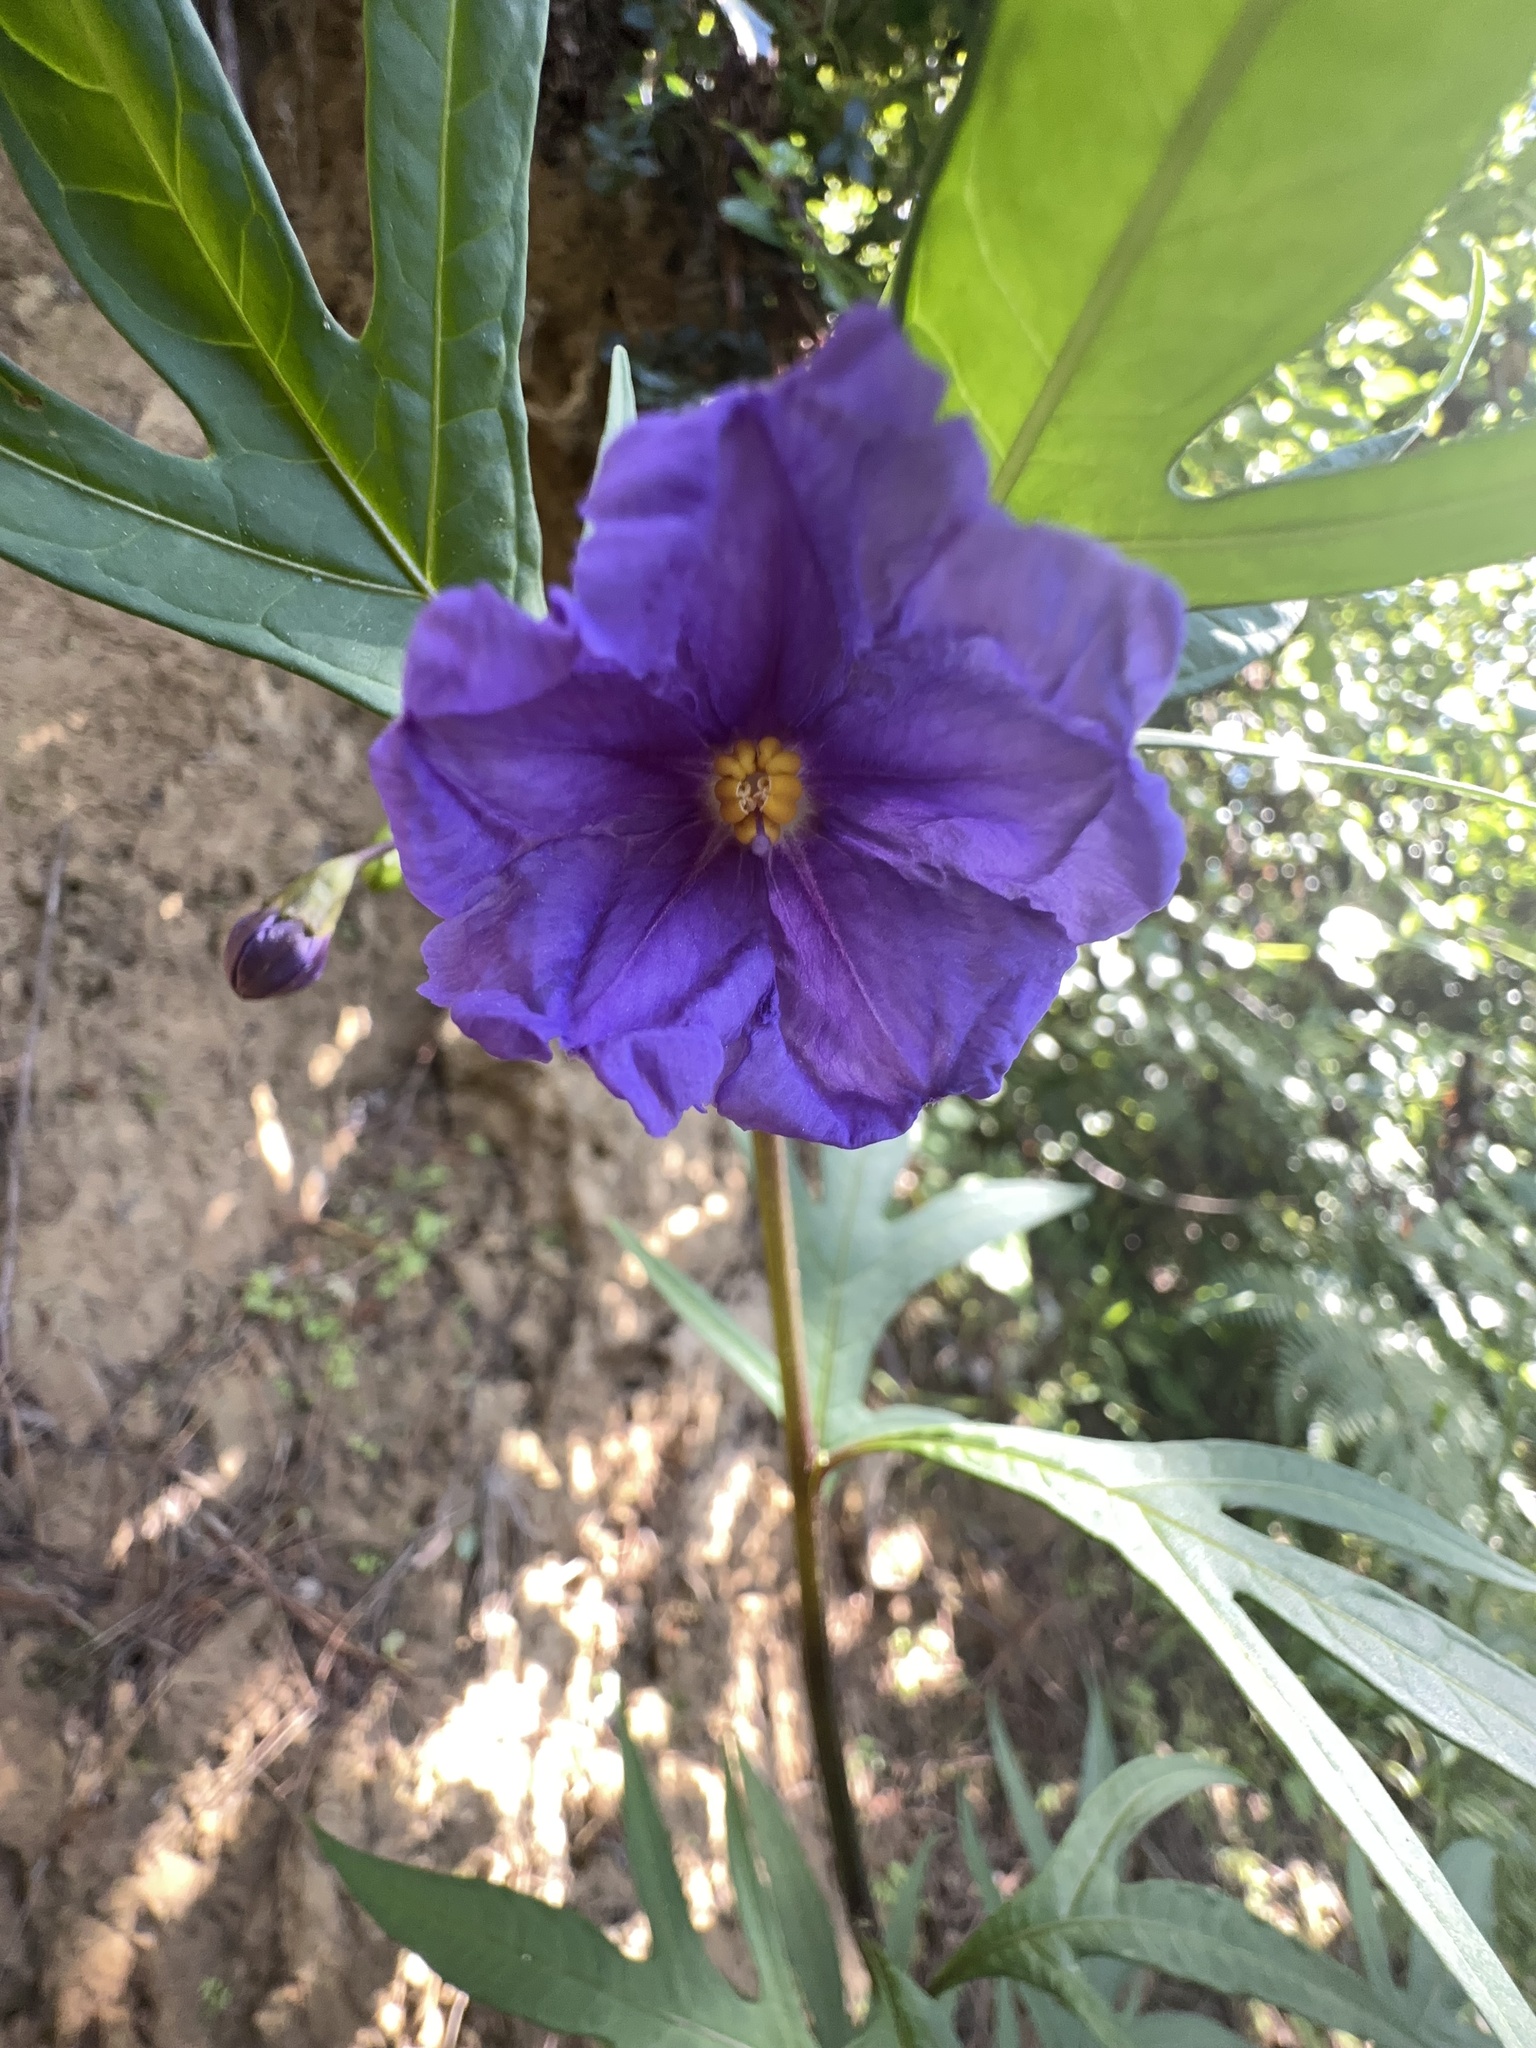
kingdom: Plantae
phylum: Tracheophyta
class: Magnoliopsida
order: Solanales
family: Solanaceae
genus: Solanum
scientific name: Solanum laciniatum
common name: Kangaroo-apple
